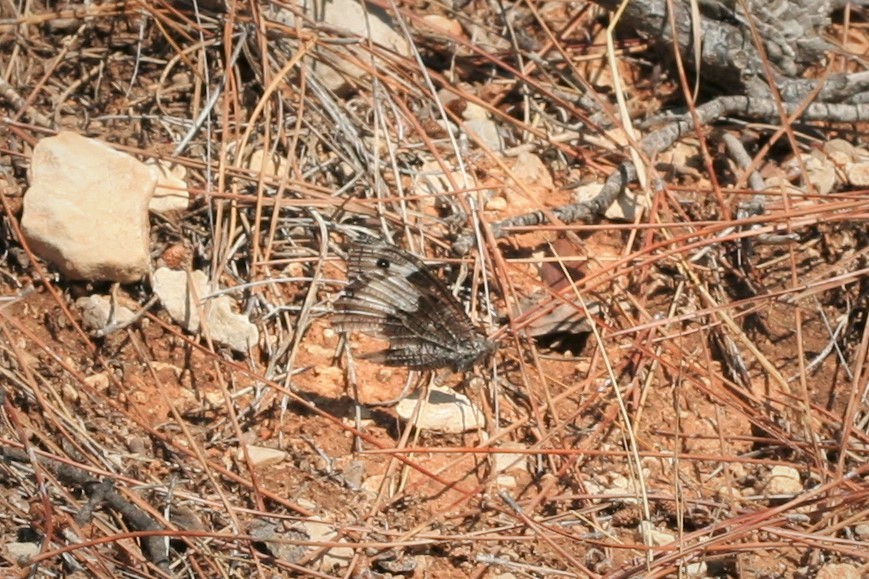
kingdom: Animalia
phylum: Arthropoda
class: Insecta
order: Lepidoptera
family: Nymphalidae
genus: Hipparchia
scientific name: Hipparchia syriaca
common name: Eastern rock grayling
